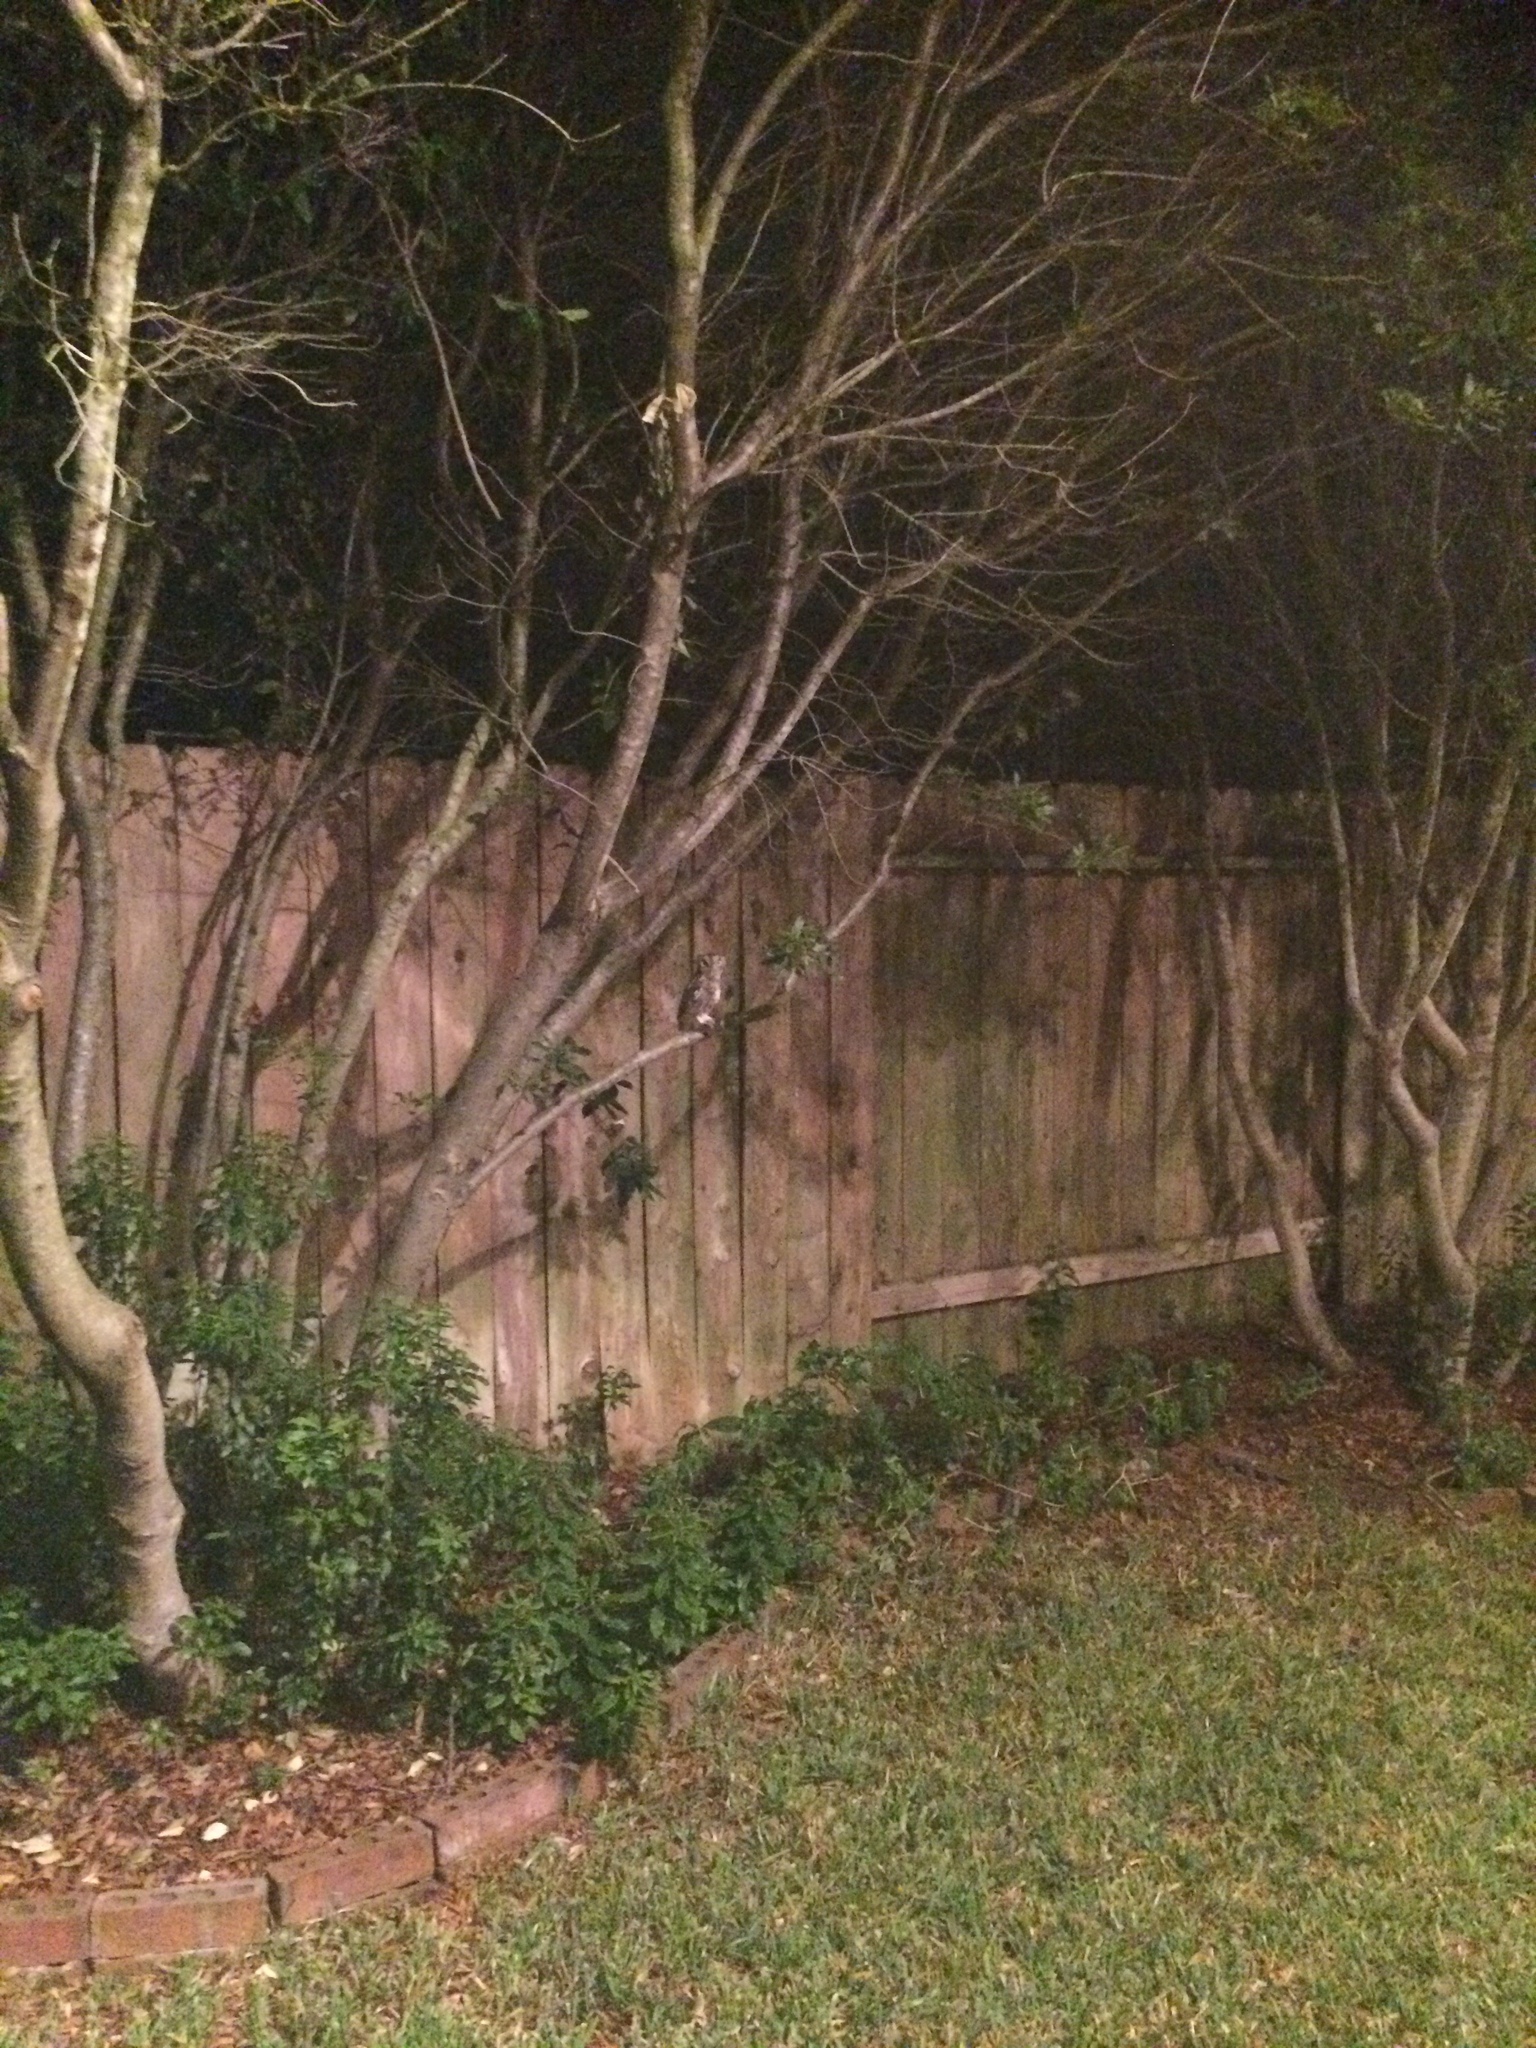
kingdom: Animalia
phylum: Chordata
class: Aves
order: Strigiformes
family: Strigidae
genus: Megascops
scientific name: Megascops asio
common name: Eastern screech-owl
